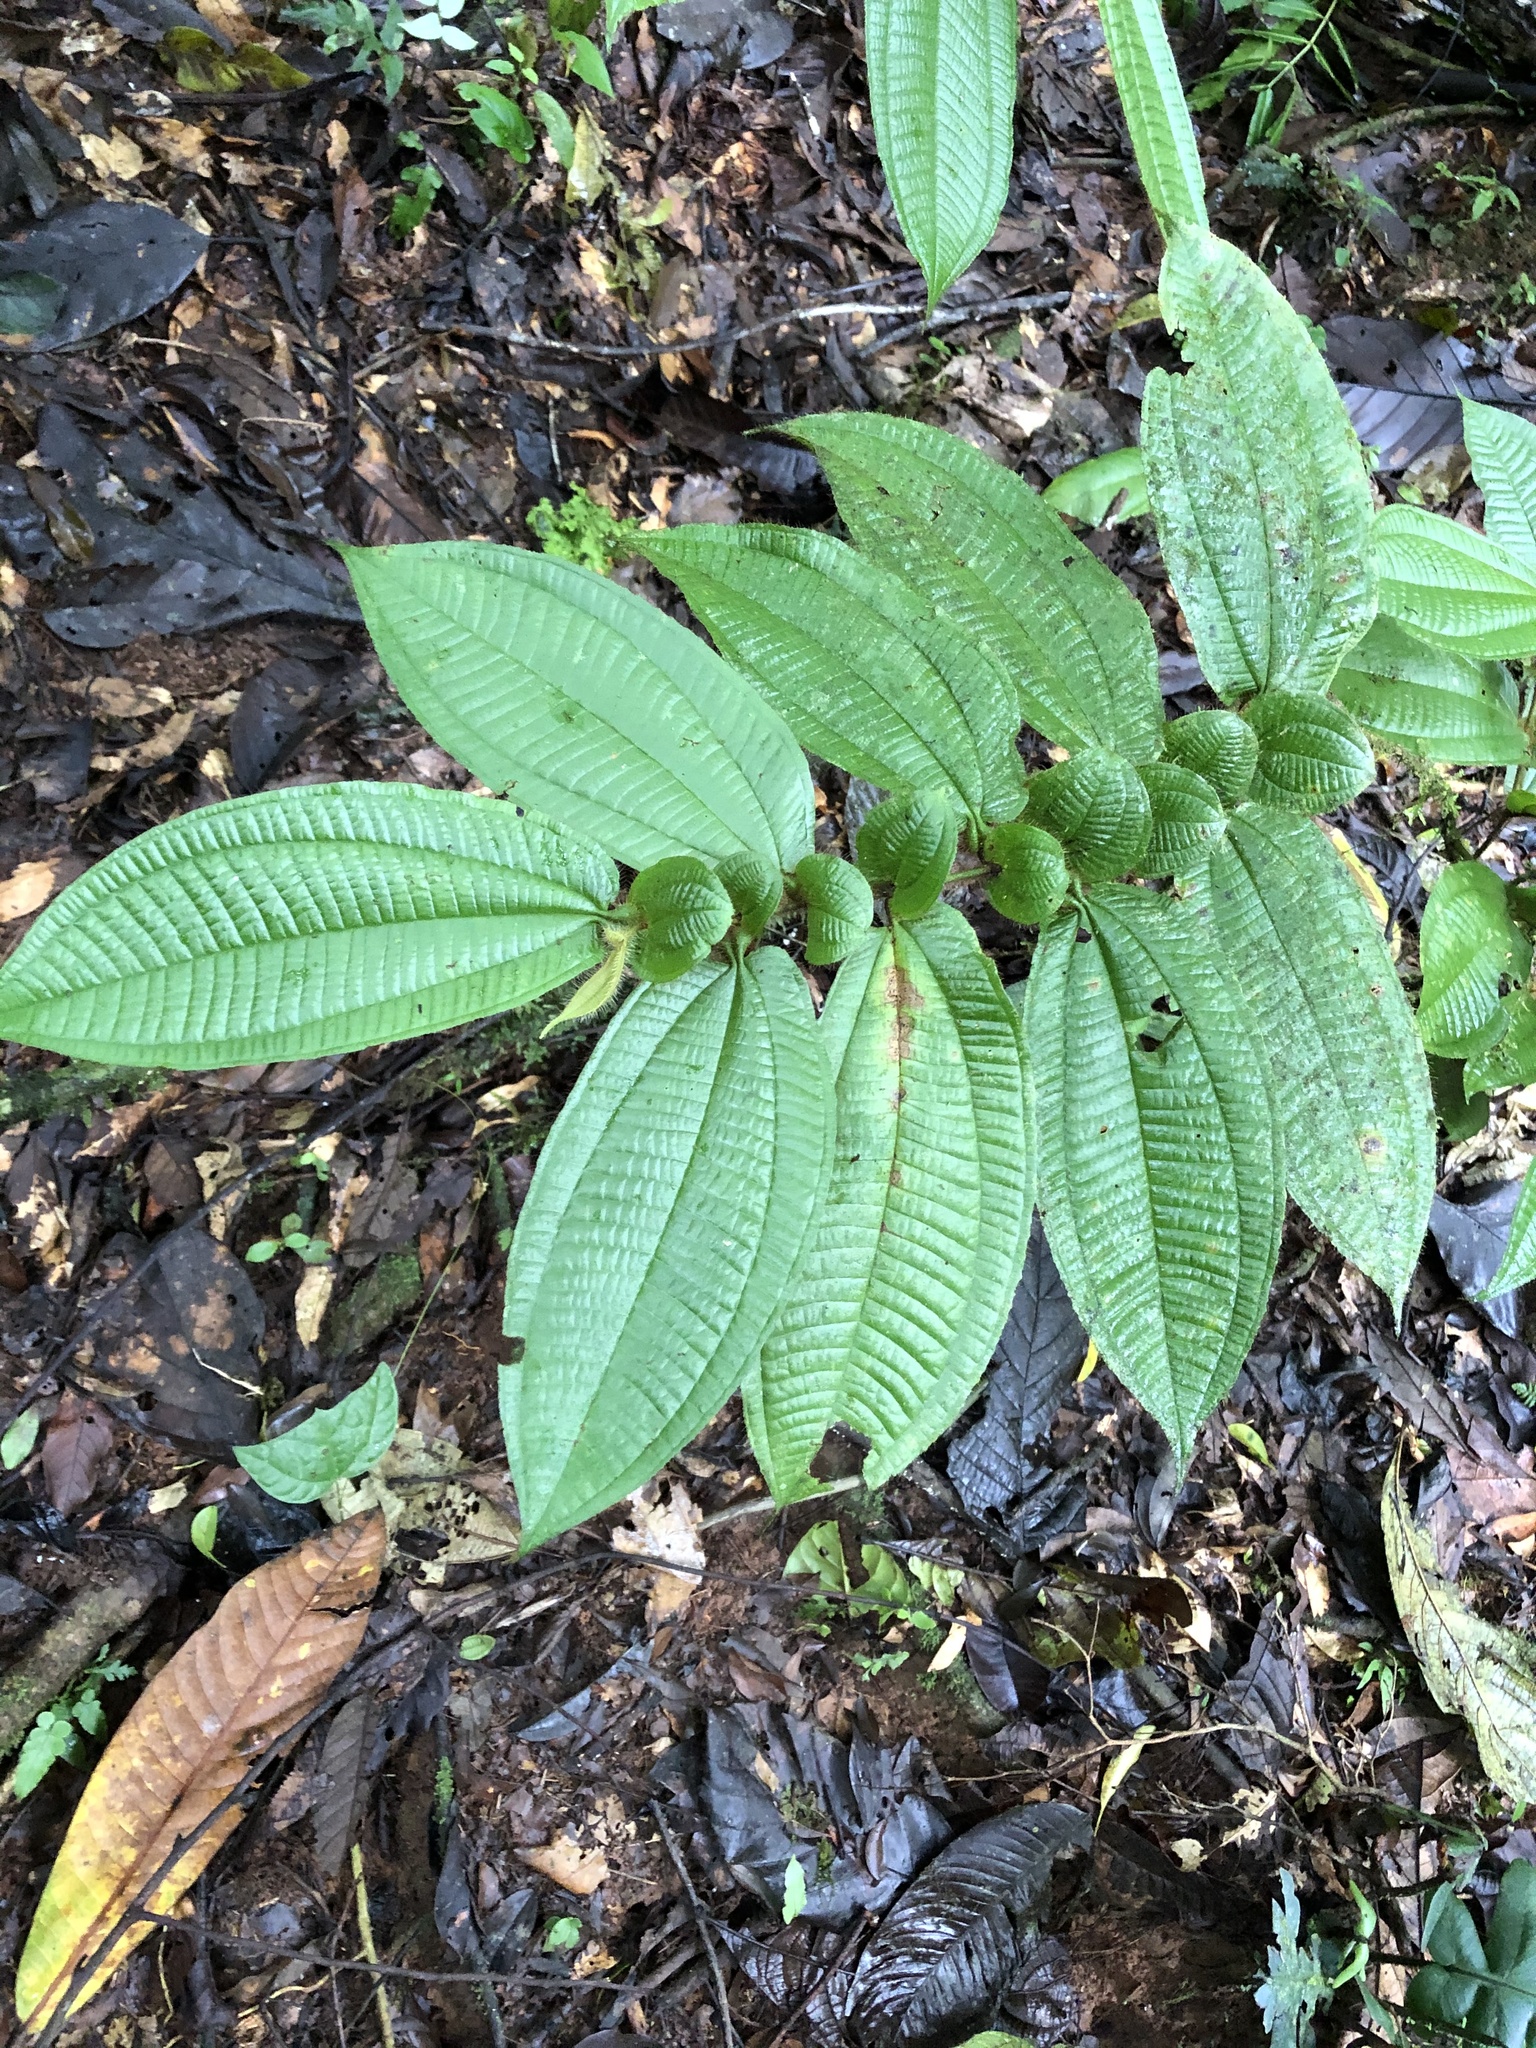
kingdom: Plantae
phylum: Tracheophyta
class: Magnoliopsida
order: Myrtales
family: Melastomataceae
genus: Miconia
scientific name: Miconia richardsprucei
